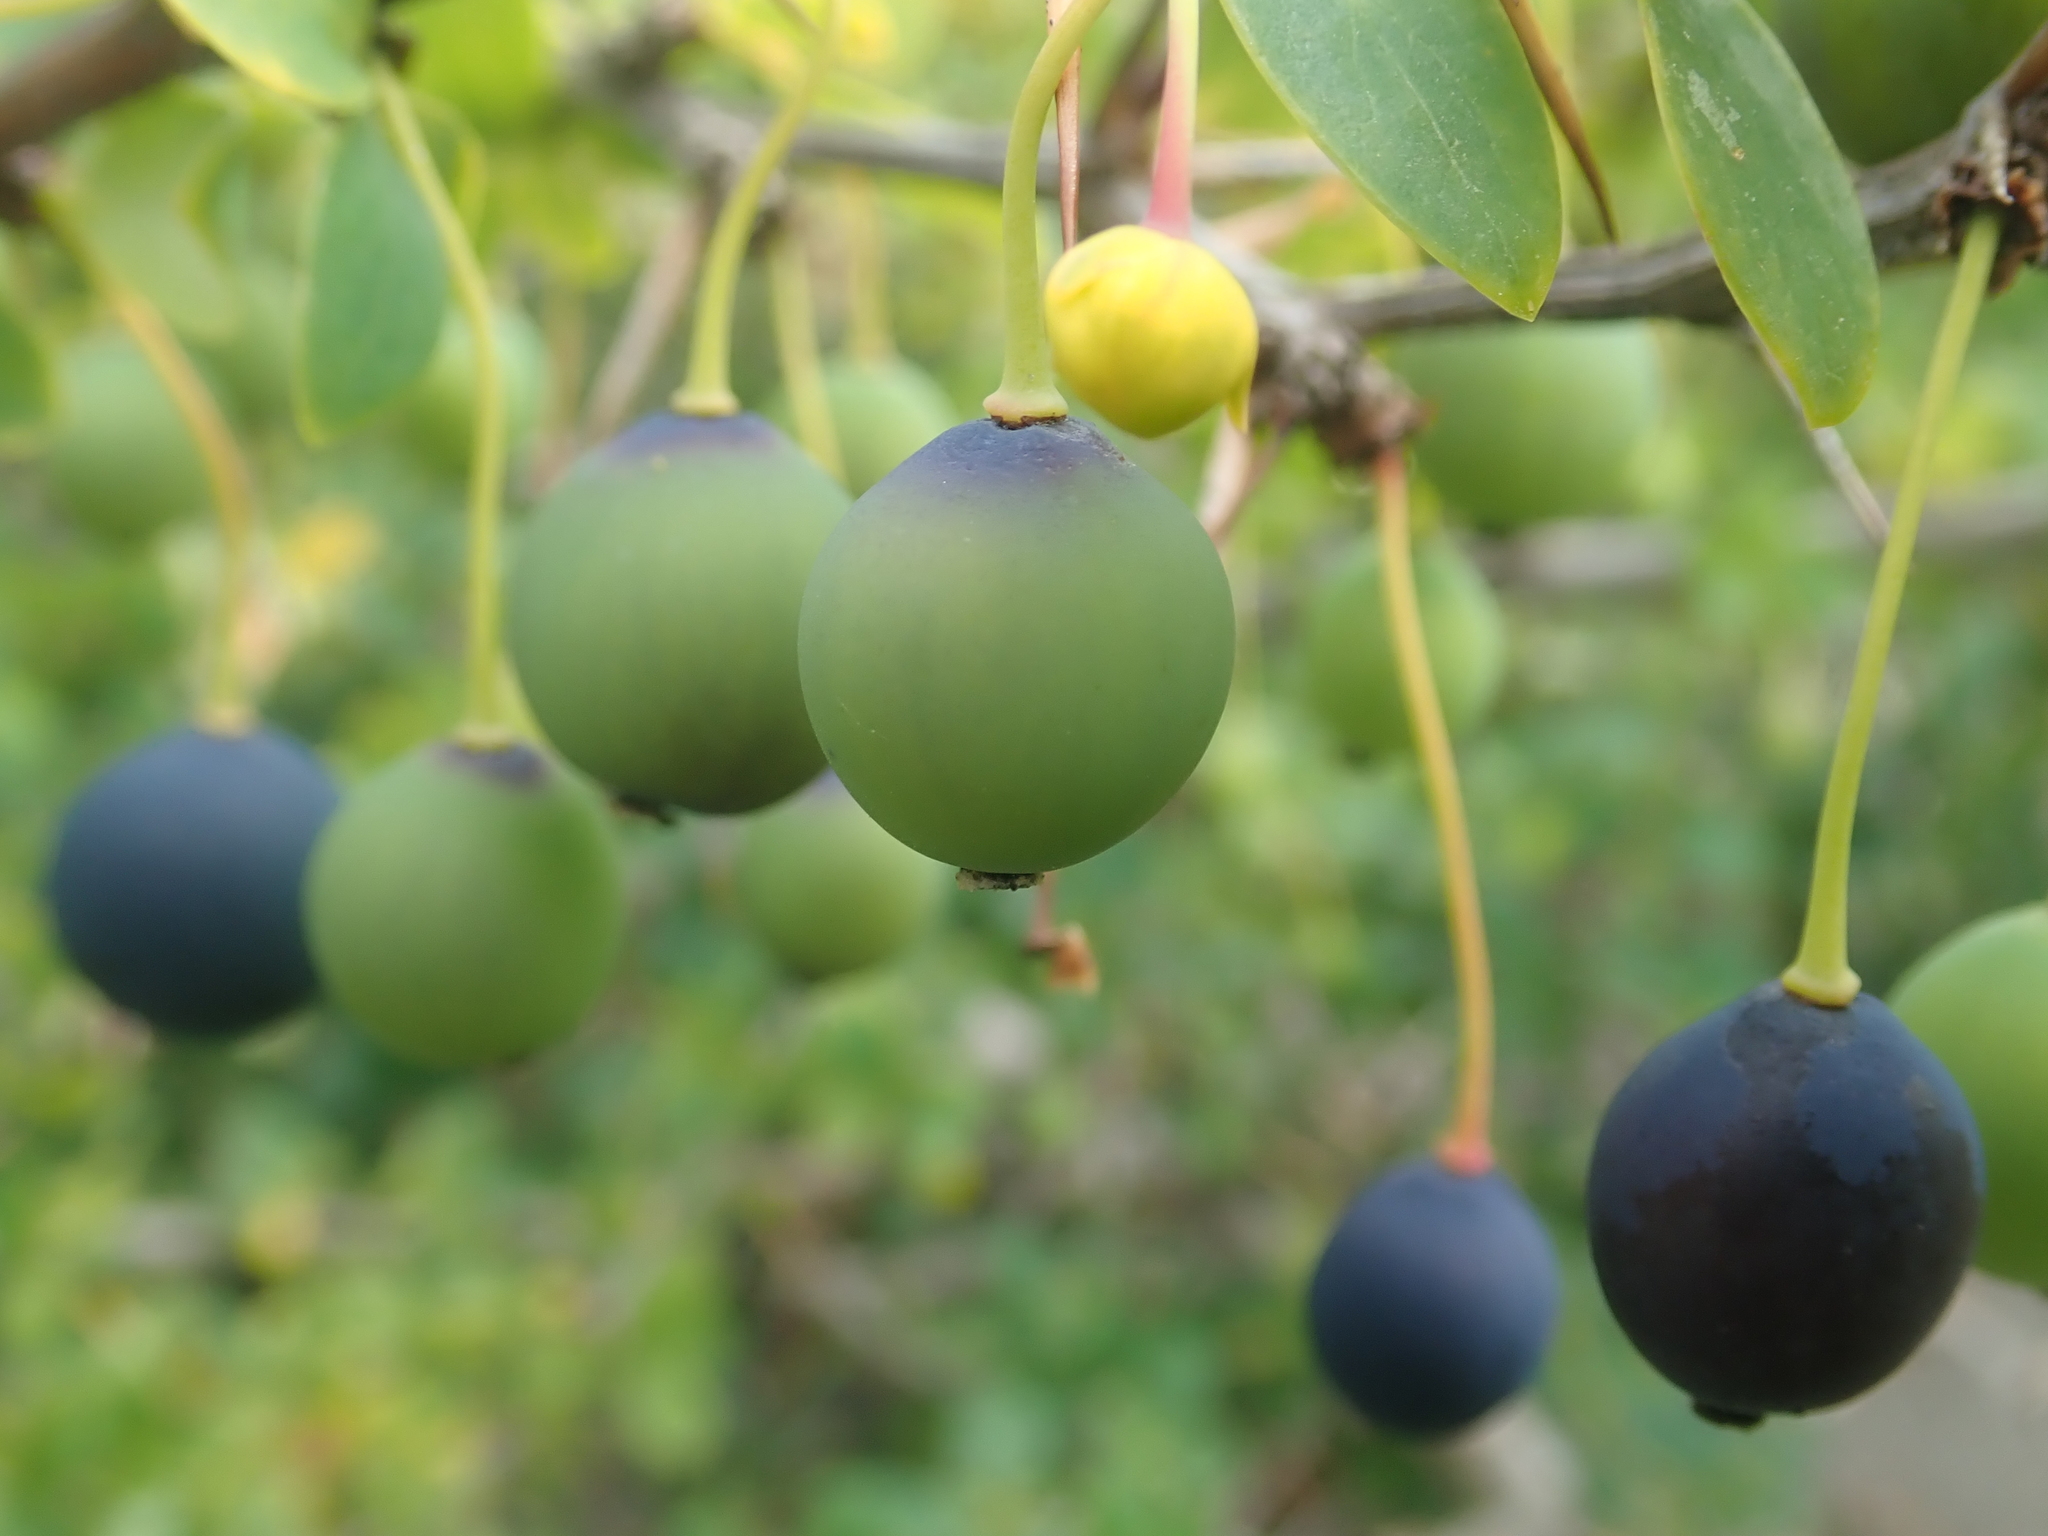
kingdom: Plantae
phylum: Tracheophyta
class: Magnoliopsida
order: Ranunculales
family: Berberidaceae
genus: Berberis
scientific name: Berberis microphylla
